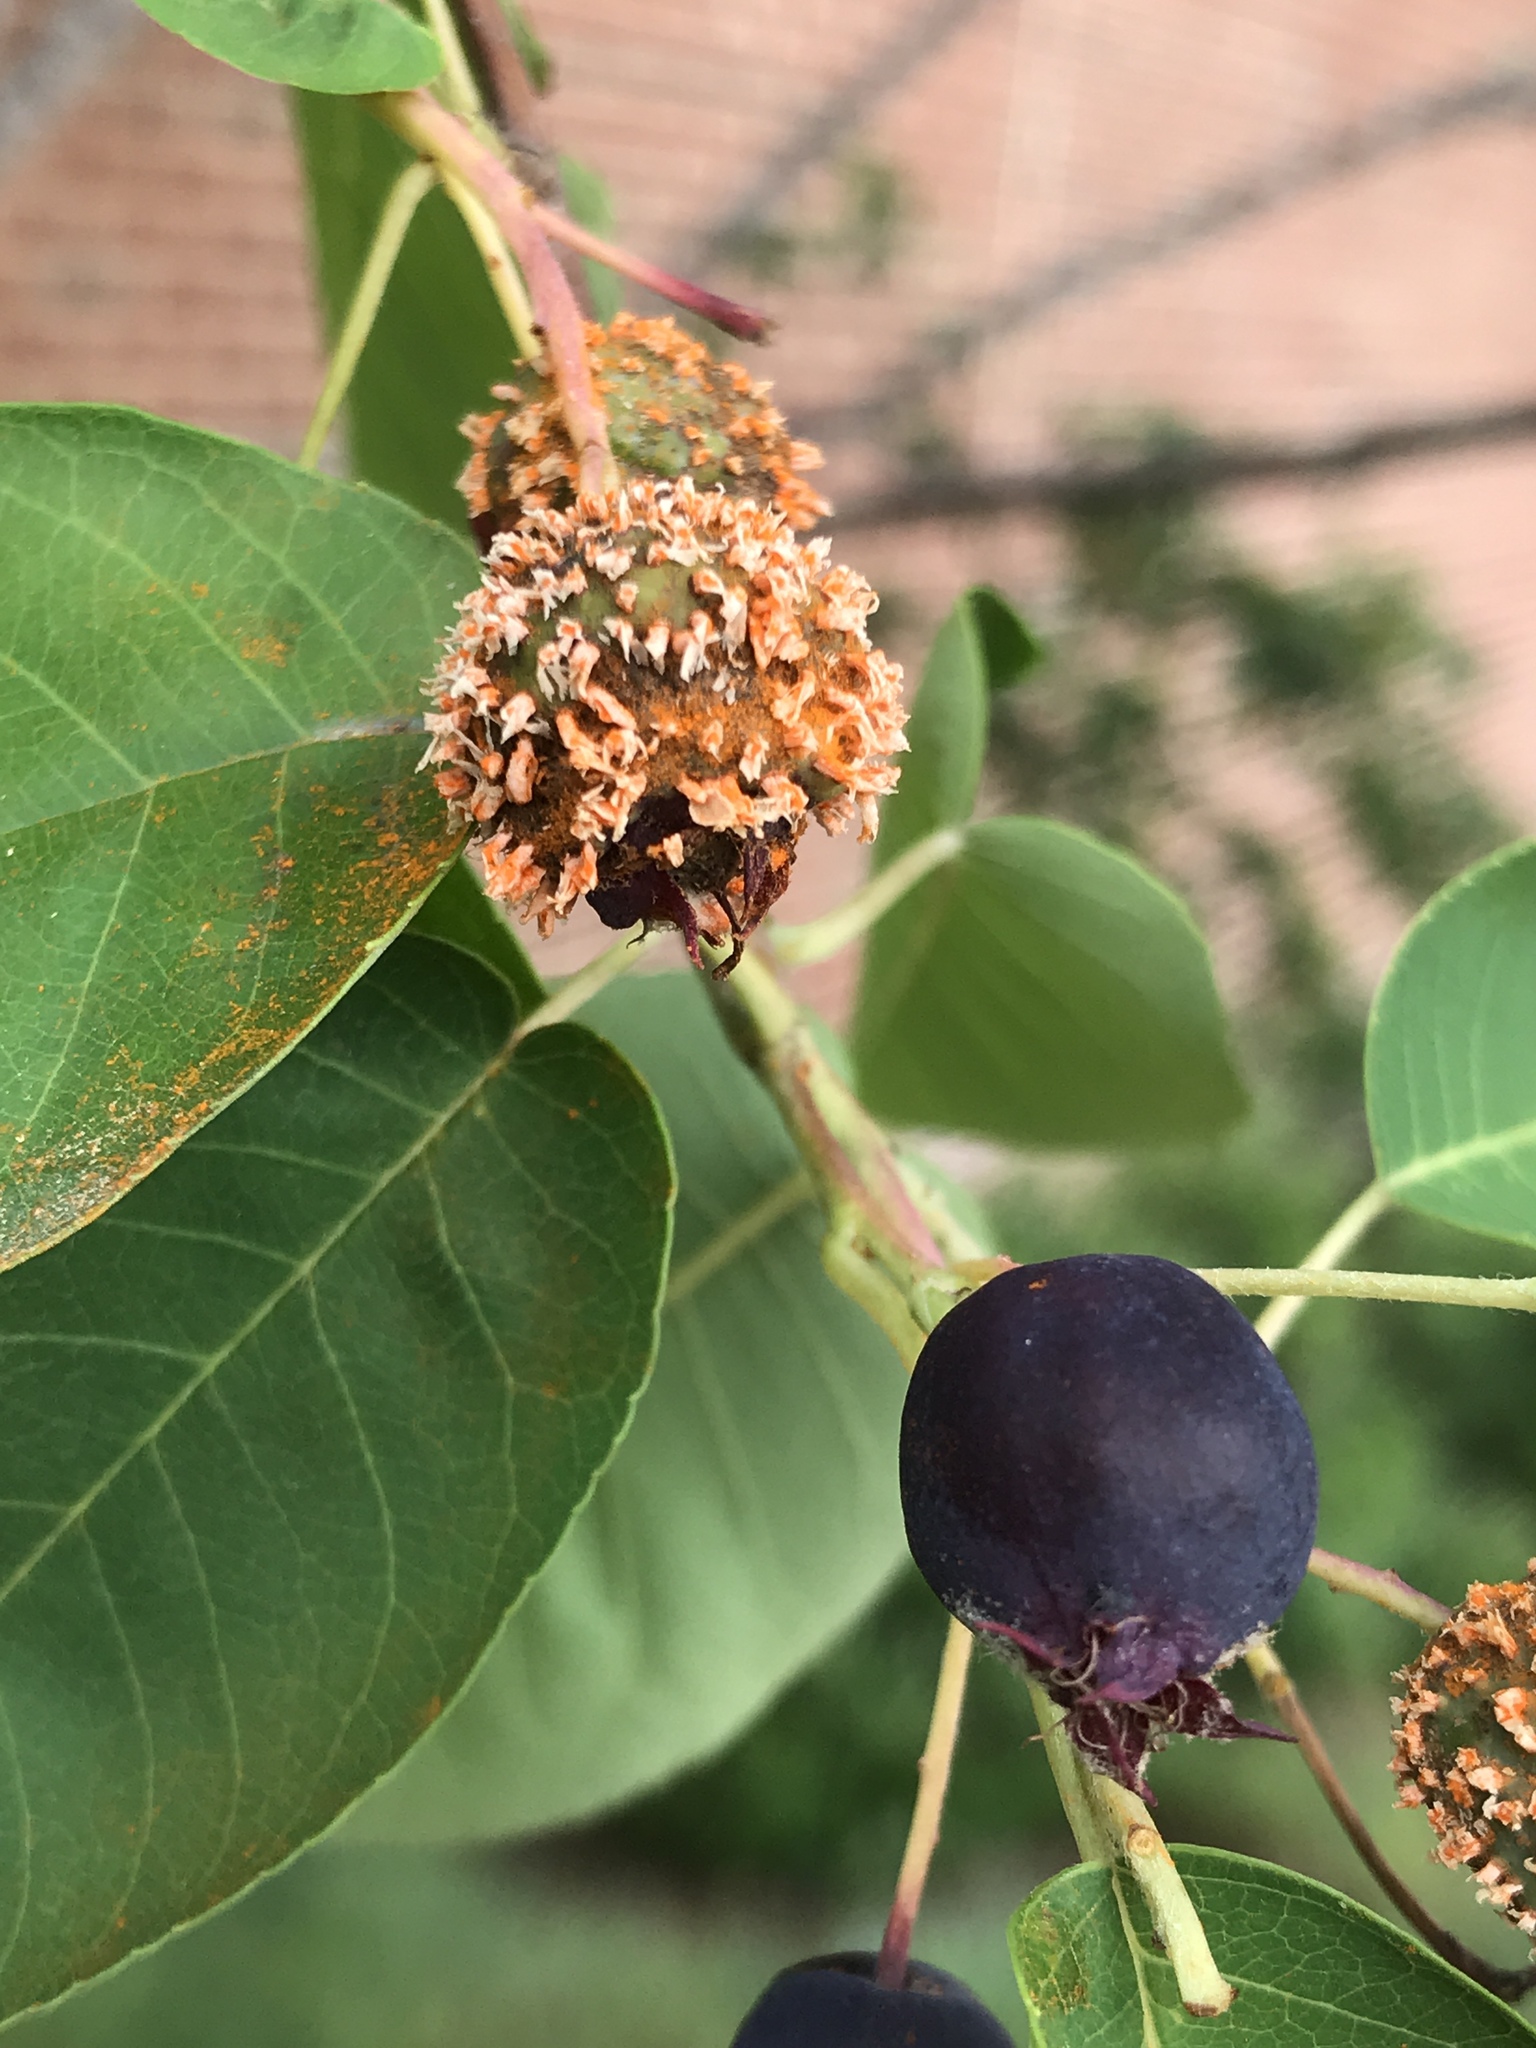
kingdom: Fungi
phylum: Basidiomycota
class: Pucciniomycetes
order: Pucciniales
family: Gymnosporangiaceae
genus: Gymnosporangium
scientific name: Gymnosporangium clavipes
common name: Quince rust
